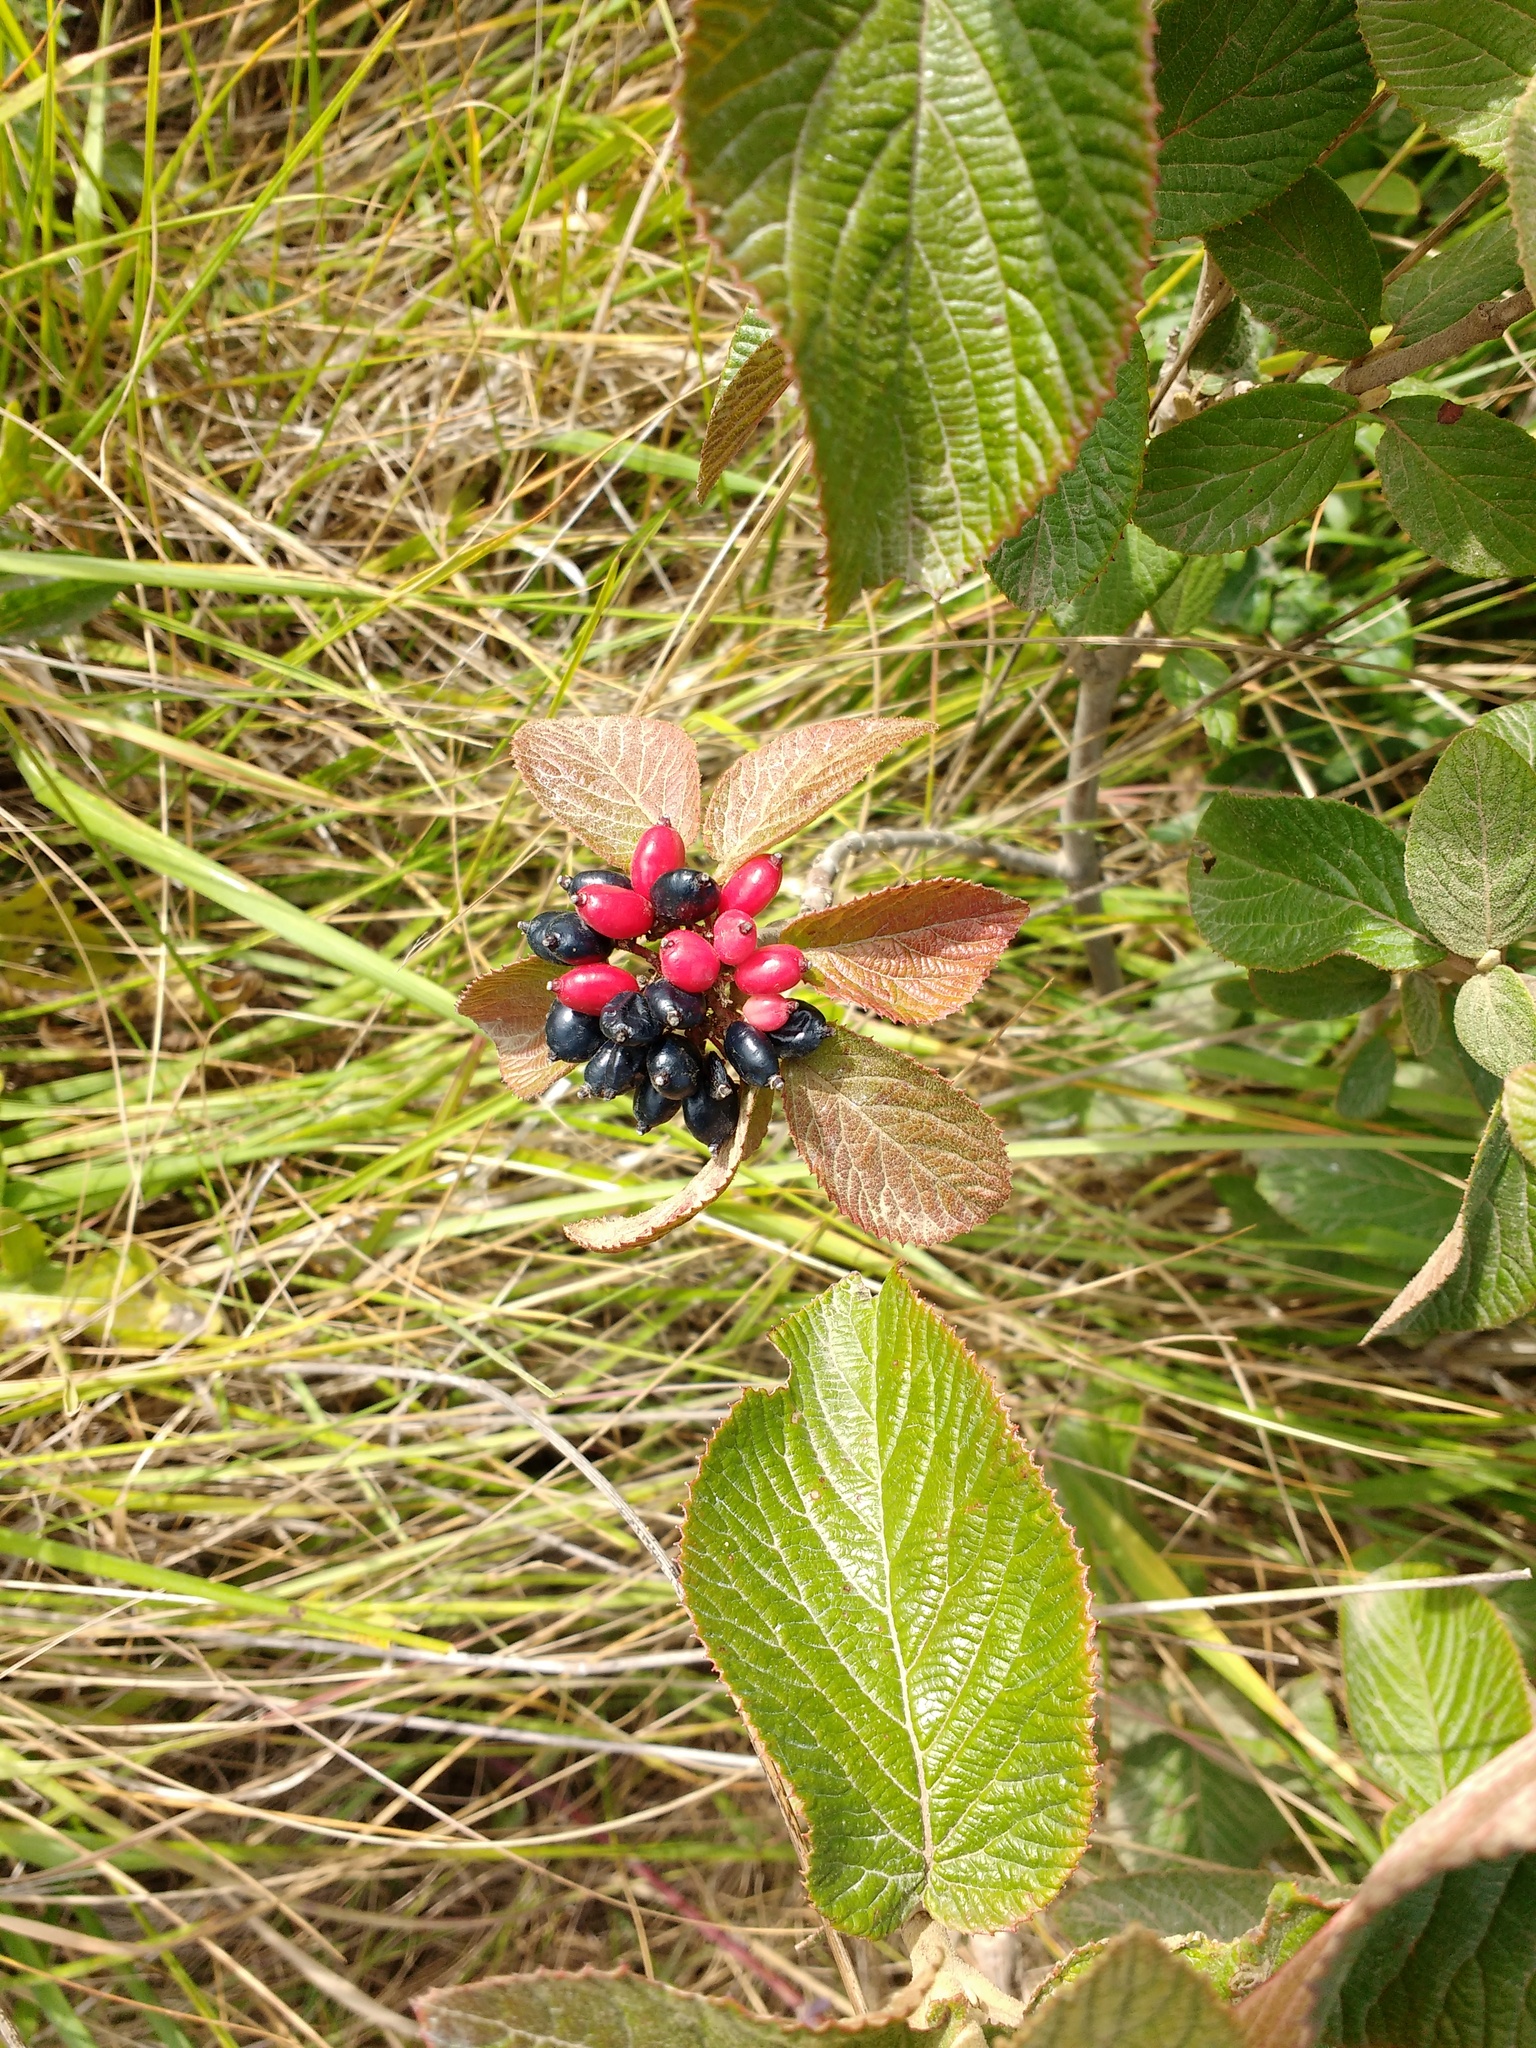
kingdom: Plantae
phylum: Tracheophyta
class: Magnoliopsida
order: Dipsacales
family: Viburnaceae
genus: Viburnum
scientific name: Viburnum lantana
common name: Wayfaring tree
